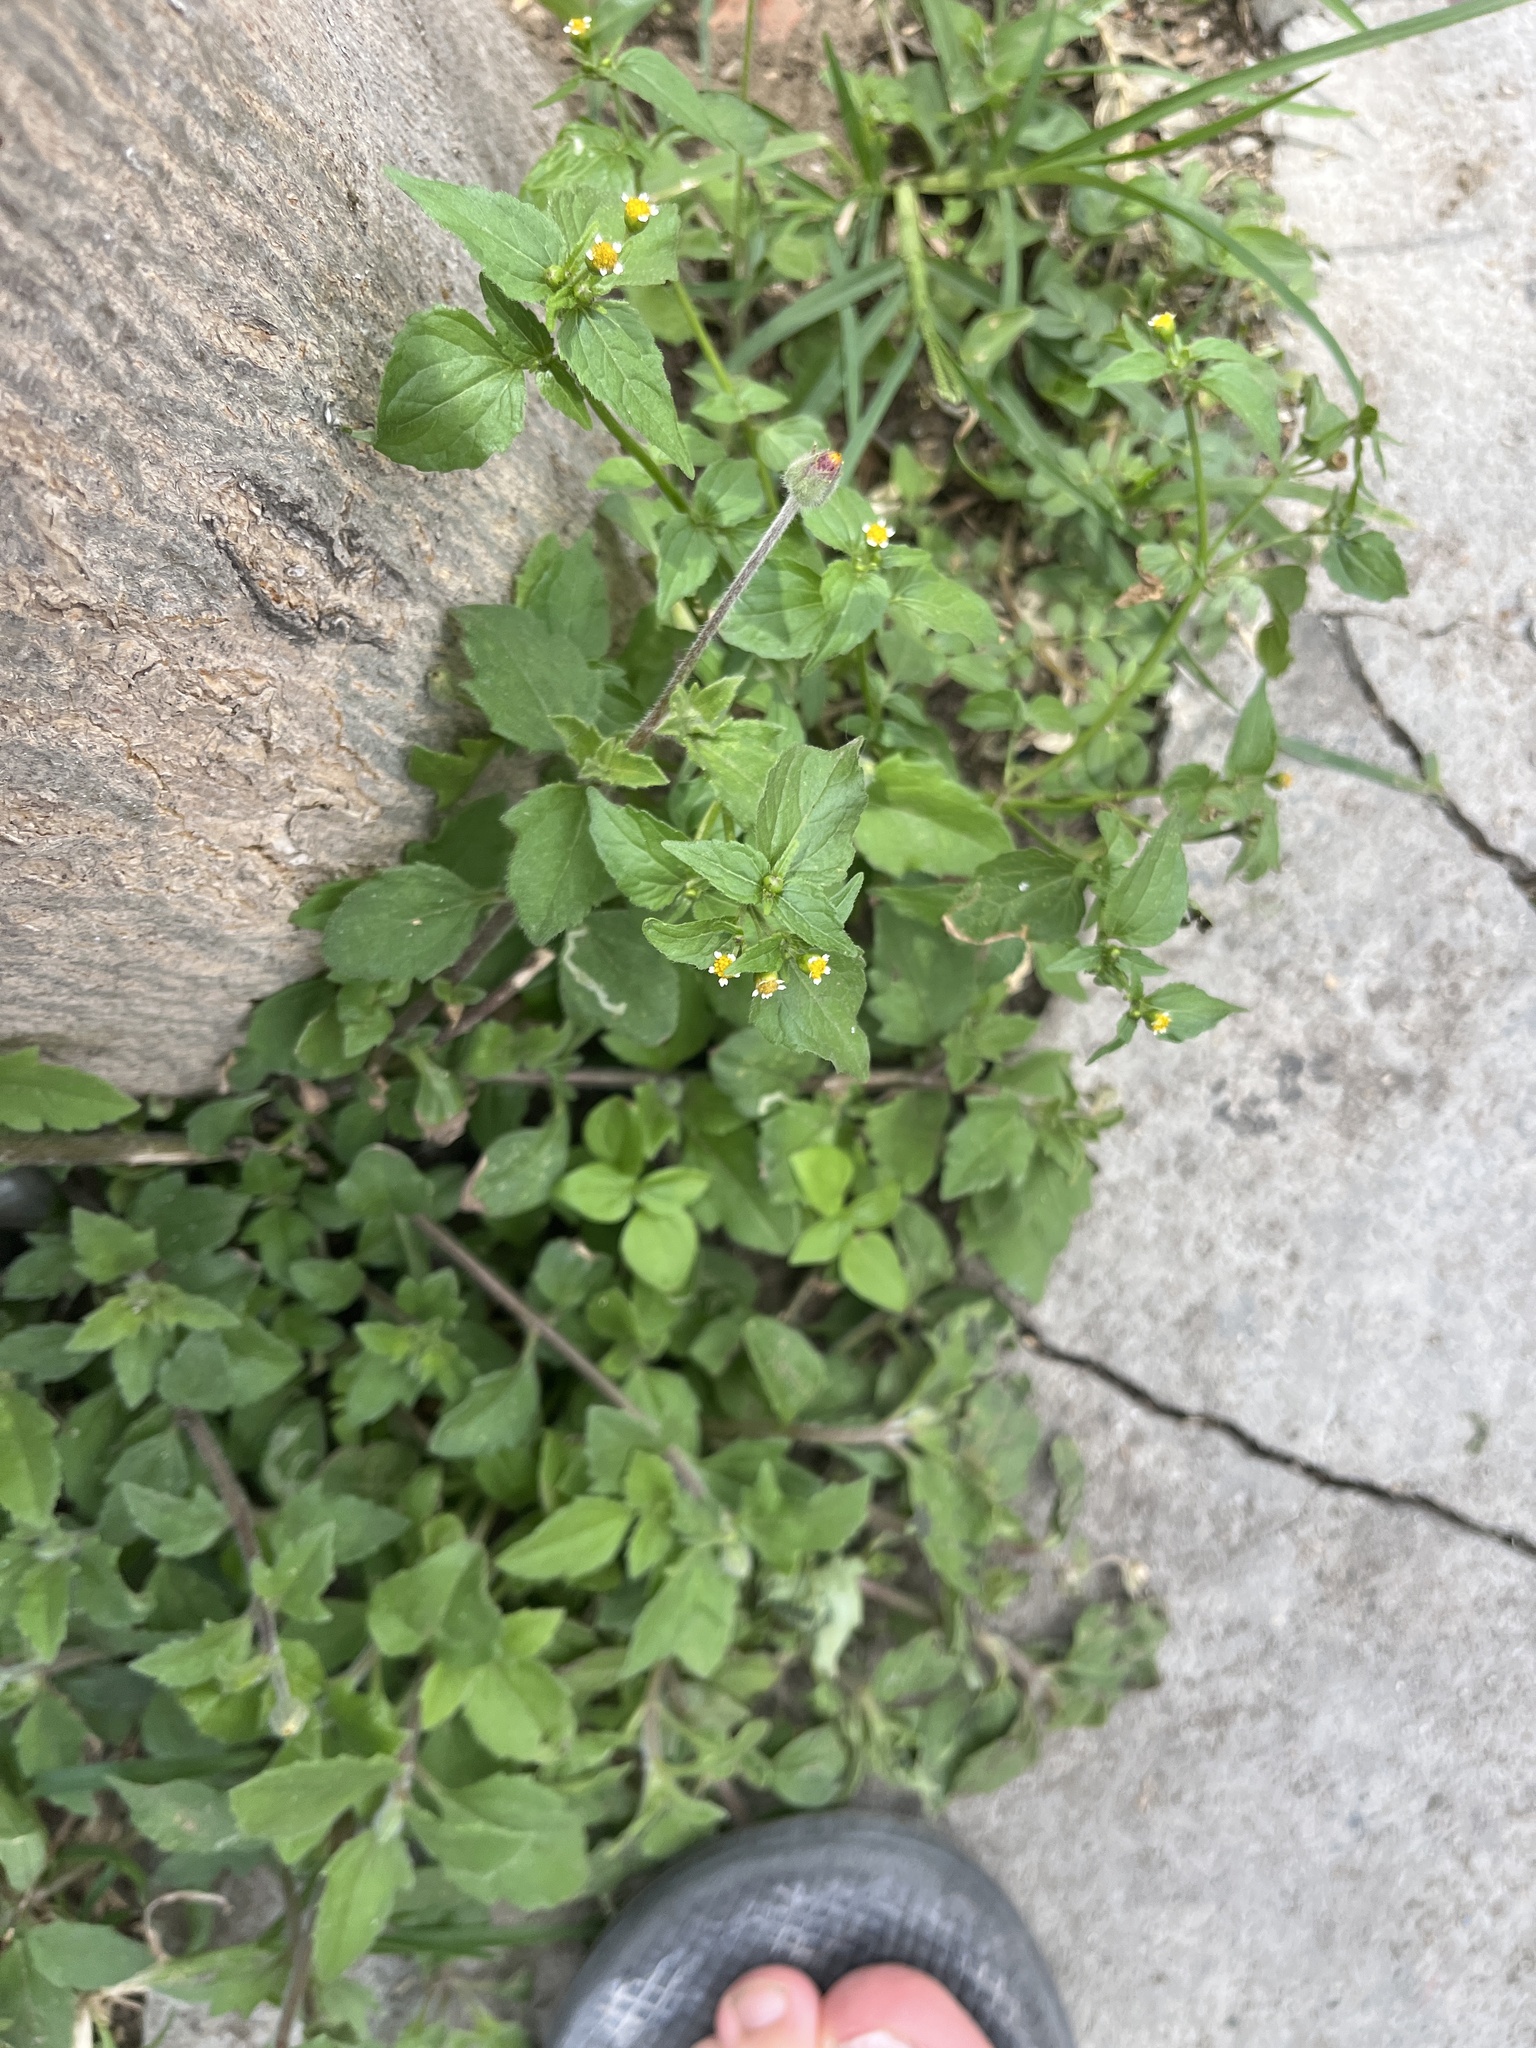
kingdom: Plantae
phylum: Tracheophyta
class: Magnoliopsida
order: Asterales
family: Asteraceae
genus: Galinsoga
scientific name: Galinsoga parviflora
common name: Gallant soldier
